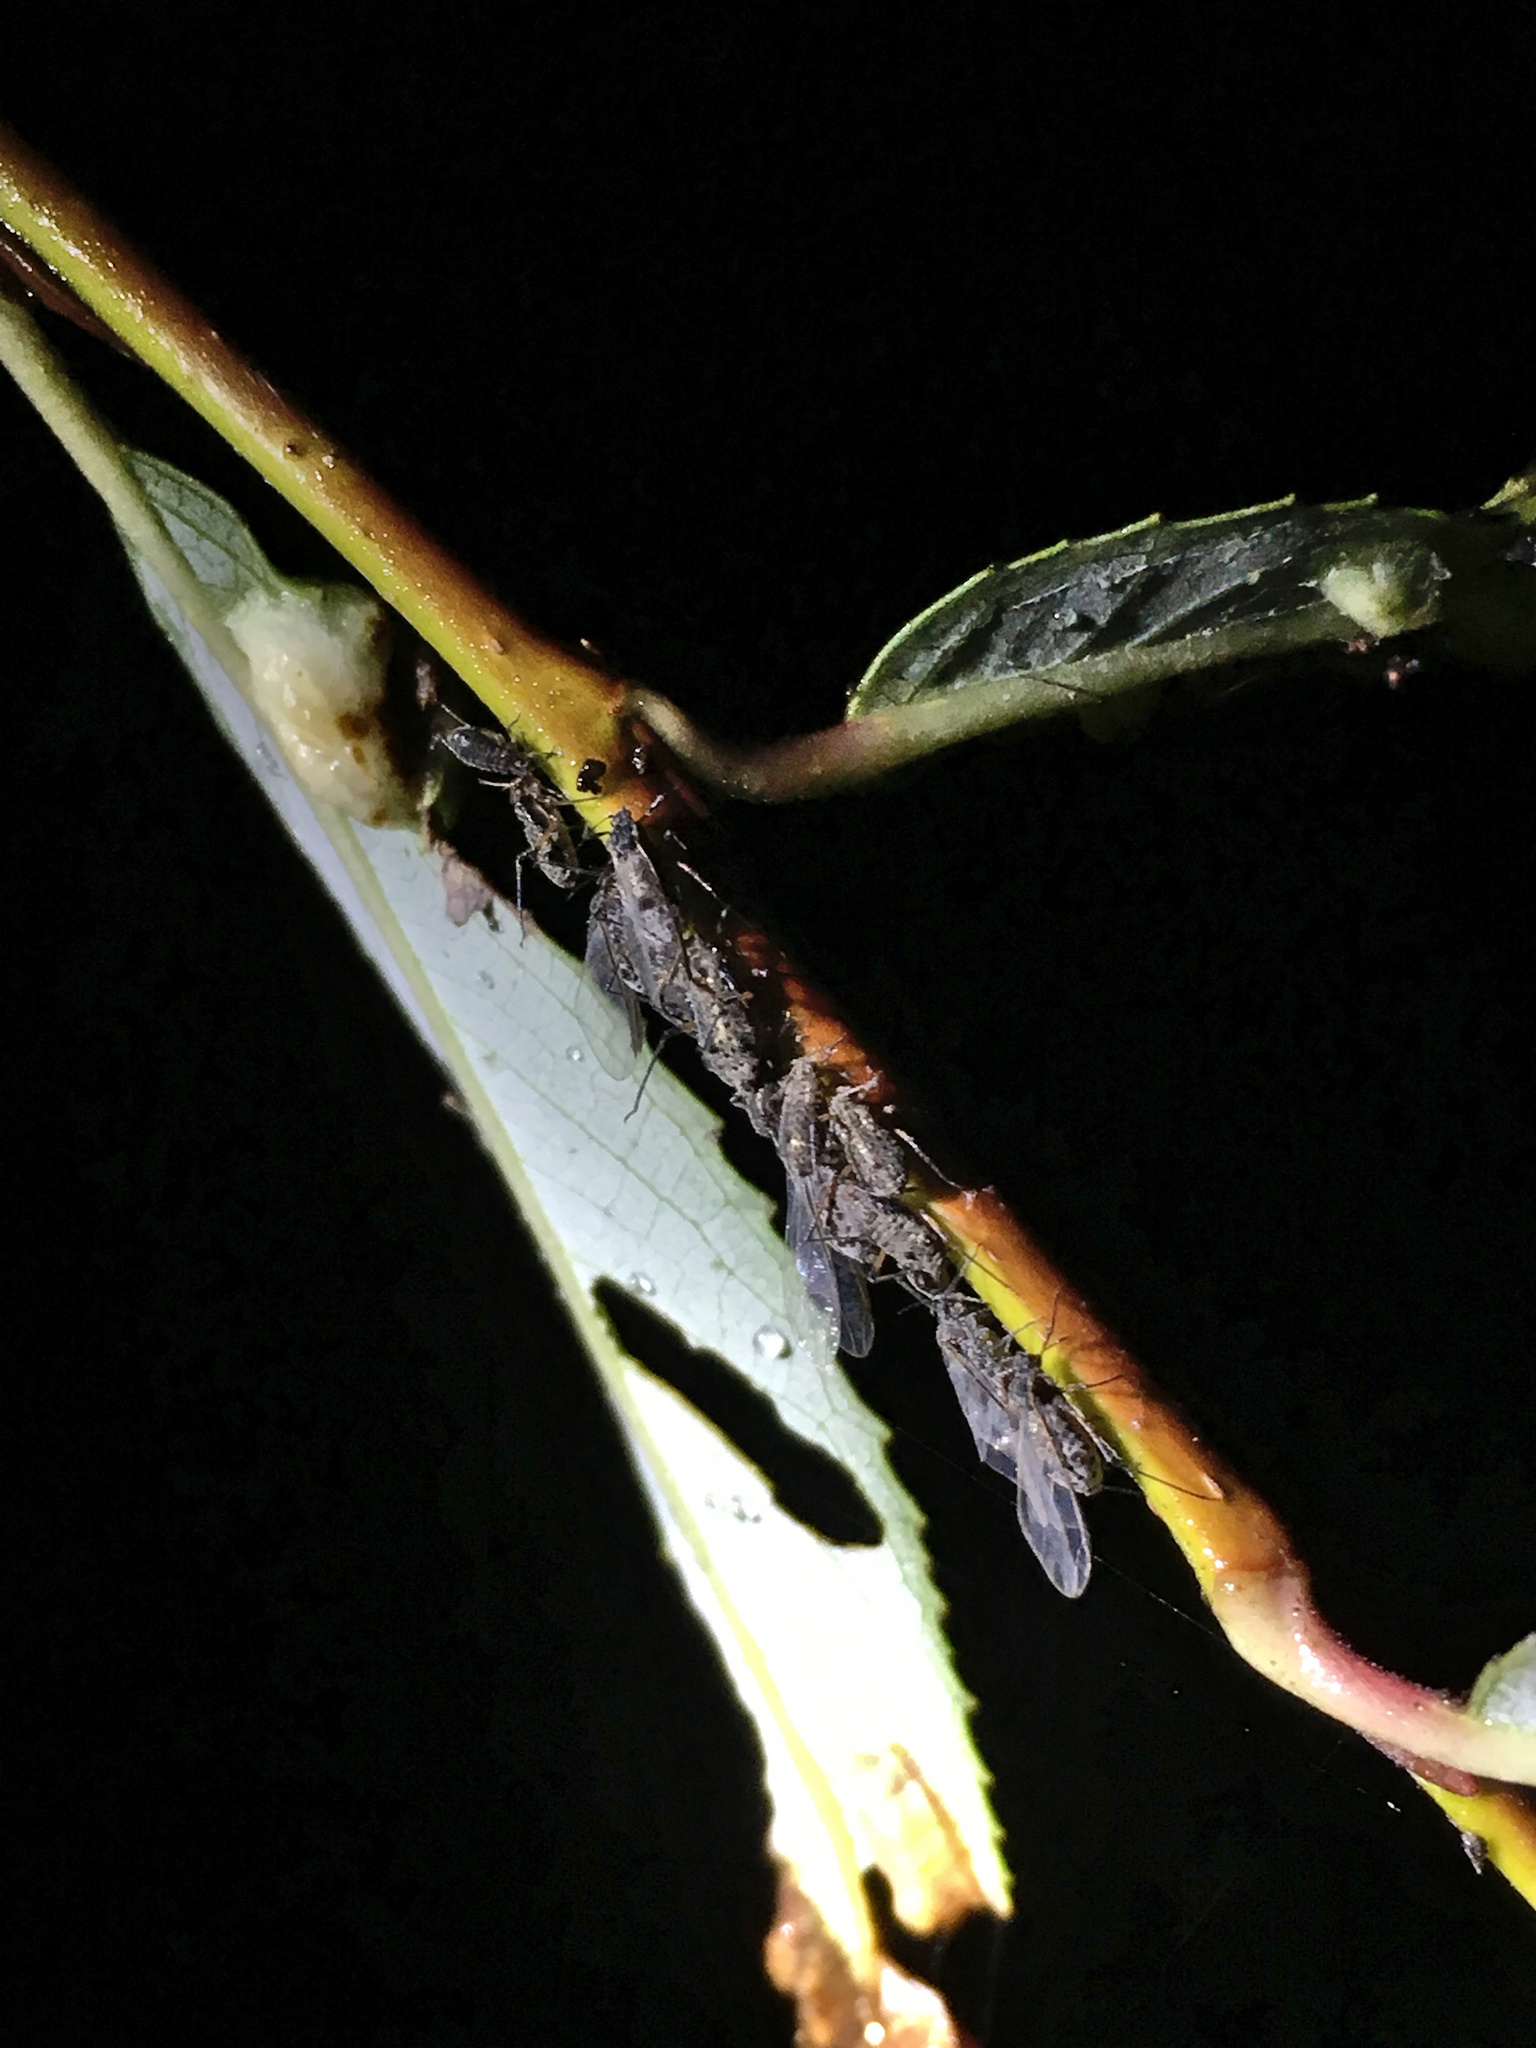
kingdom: Animalia
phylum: Arthropoda
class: Insecta
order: Hemiptera
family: Aphididae
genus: Tuberolachnus
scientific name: Tuberolachnus salignus
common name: Giant willow aphid
